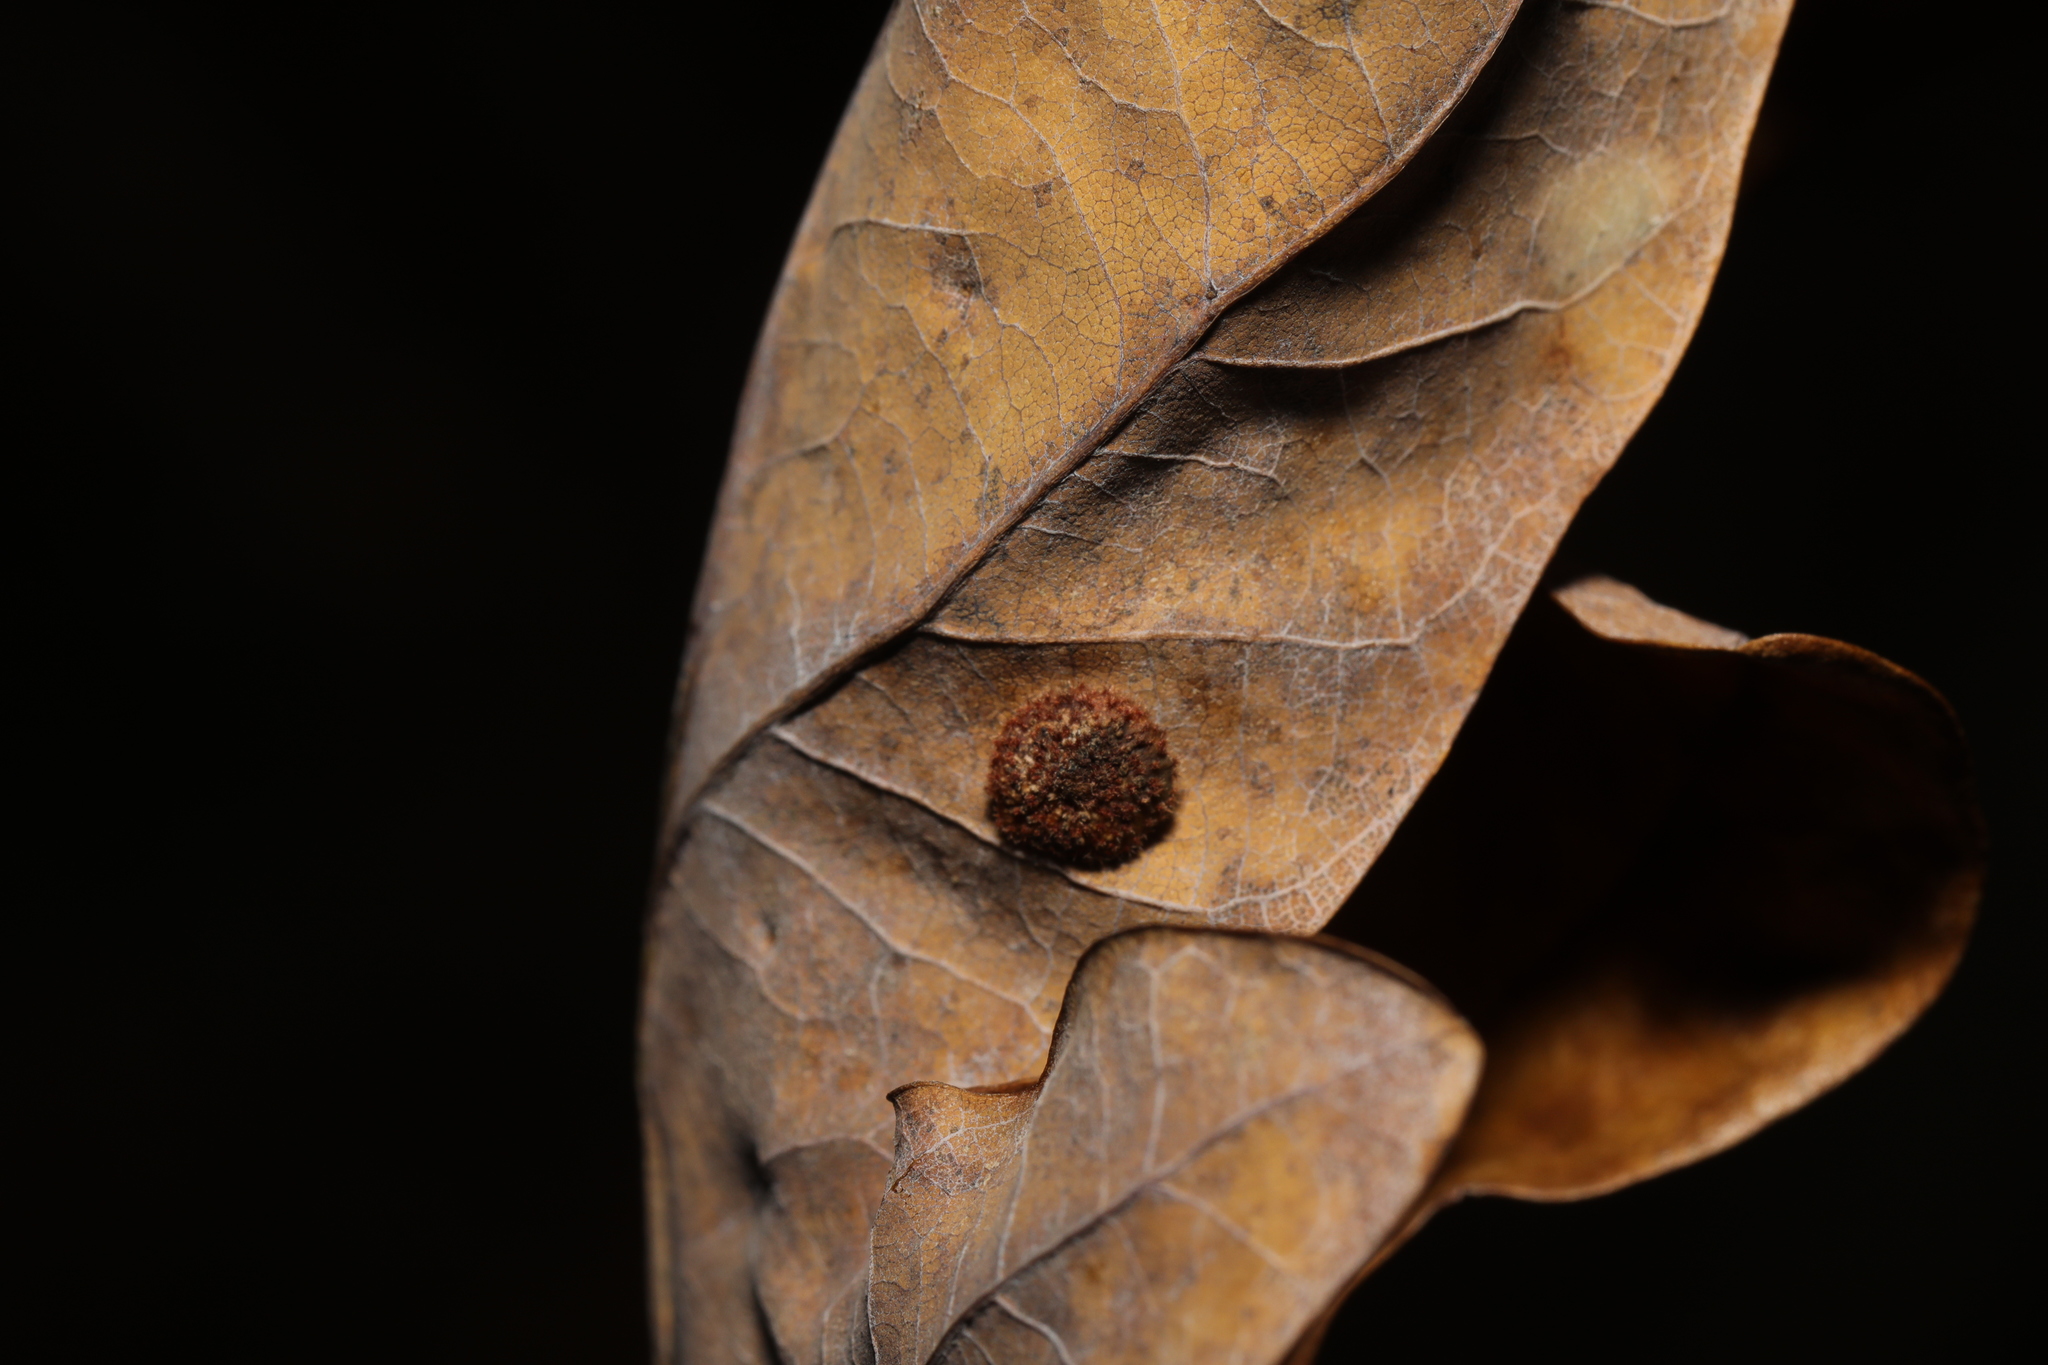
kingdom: Animalia
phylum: Arthropoda
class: Insecta
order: Hymenoptera
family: Cynipidae
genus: Neuroterus
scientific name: Neuroterus quercusbaccarum
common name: Common spangle gall
